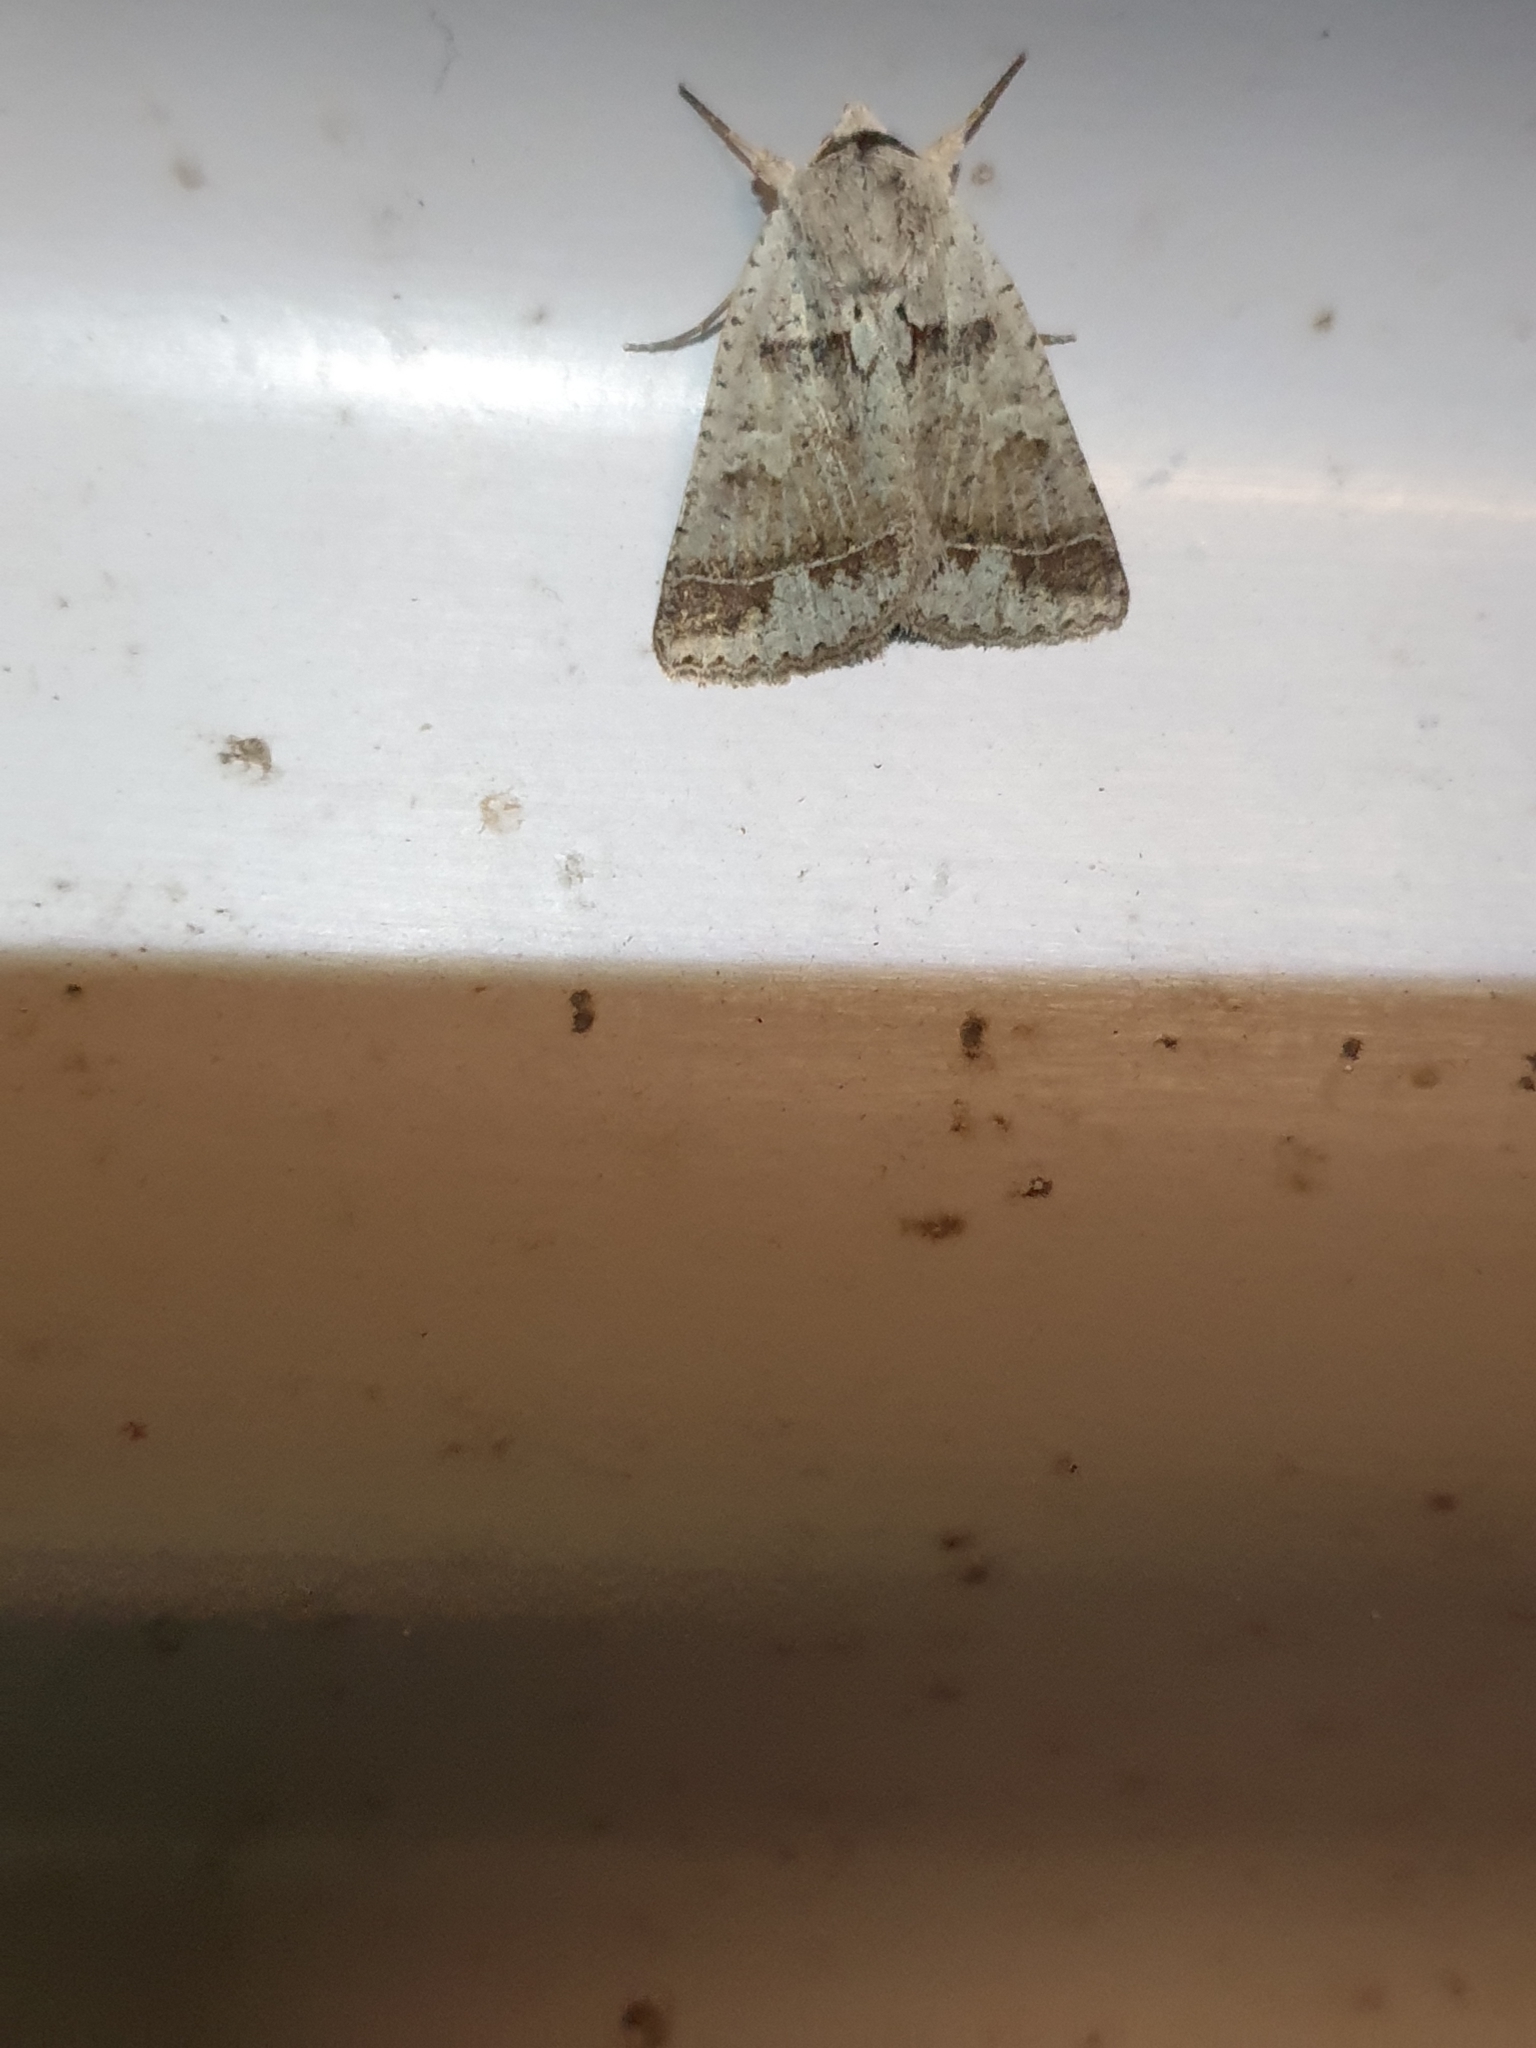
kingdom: Animalia
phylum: Arthropoda
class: Insecta
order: Lepidoptera
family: Erebidae
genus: Pantydia
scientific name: Pantydia sparsa
